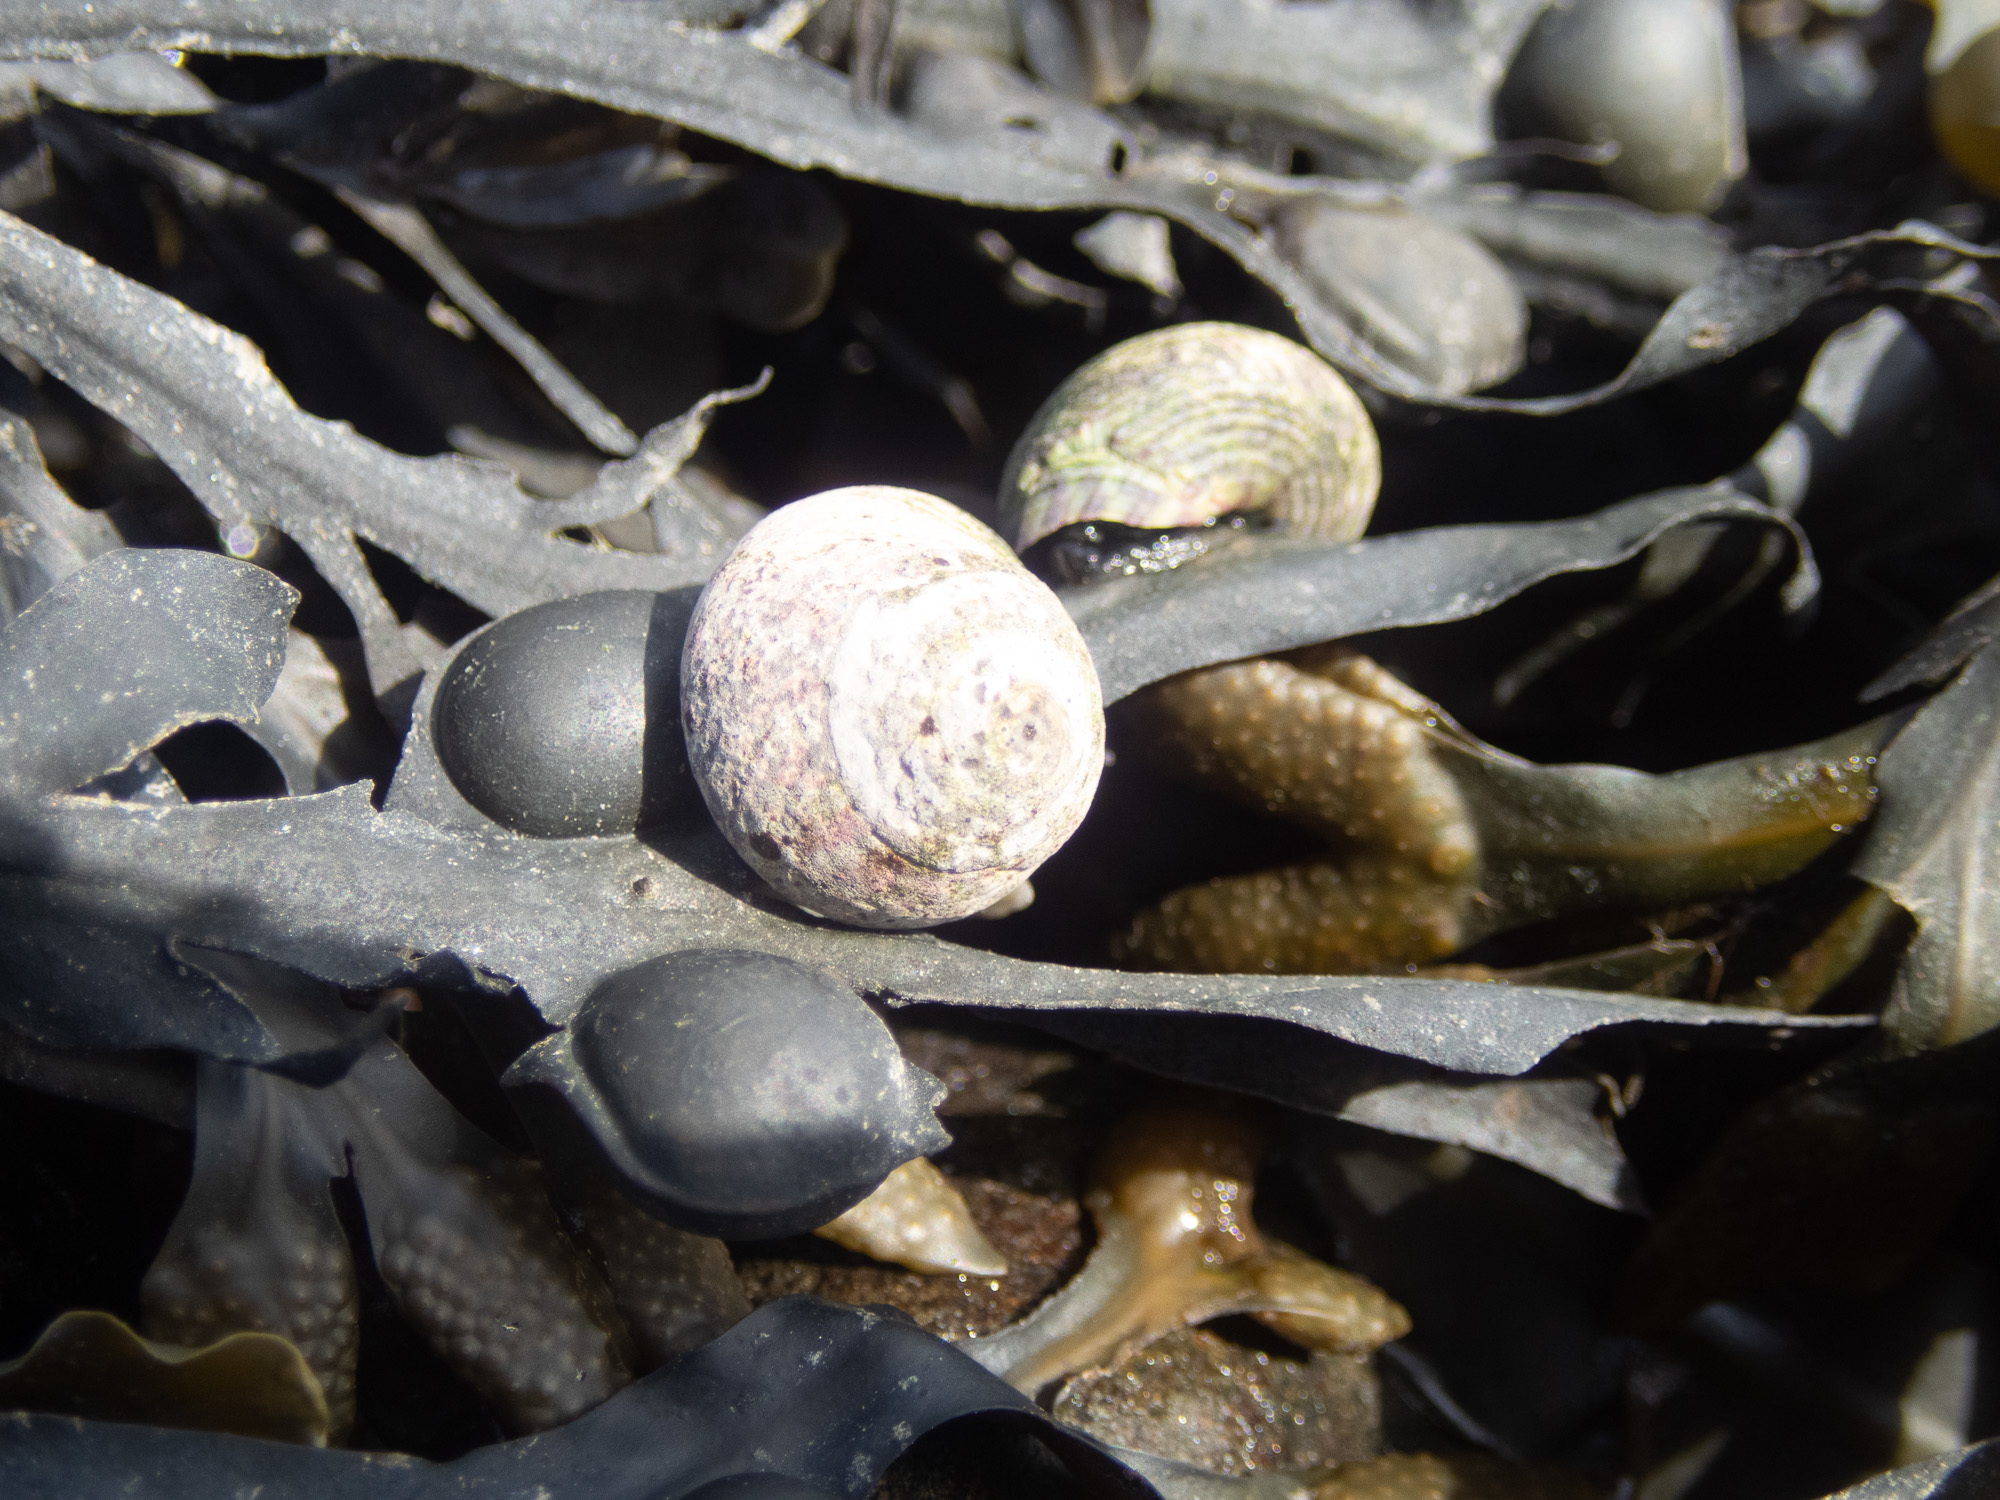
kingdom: Animalia
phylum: Mollusca
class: Gastropoda
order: Trochida
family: Trochidae
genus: Steromphala
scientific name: Steromphala umbilicalis
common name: Flat top shell
